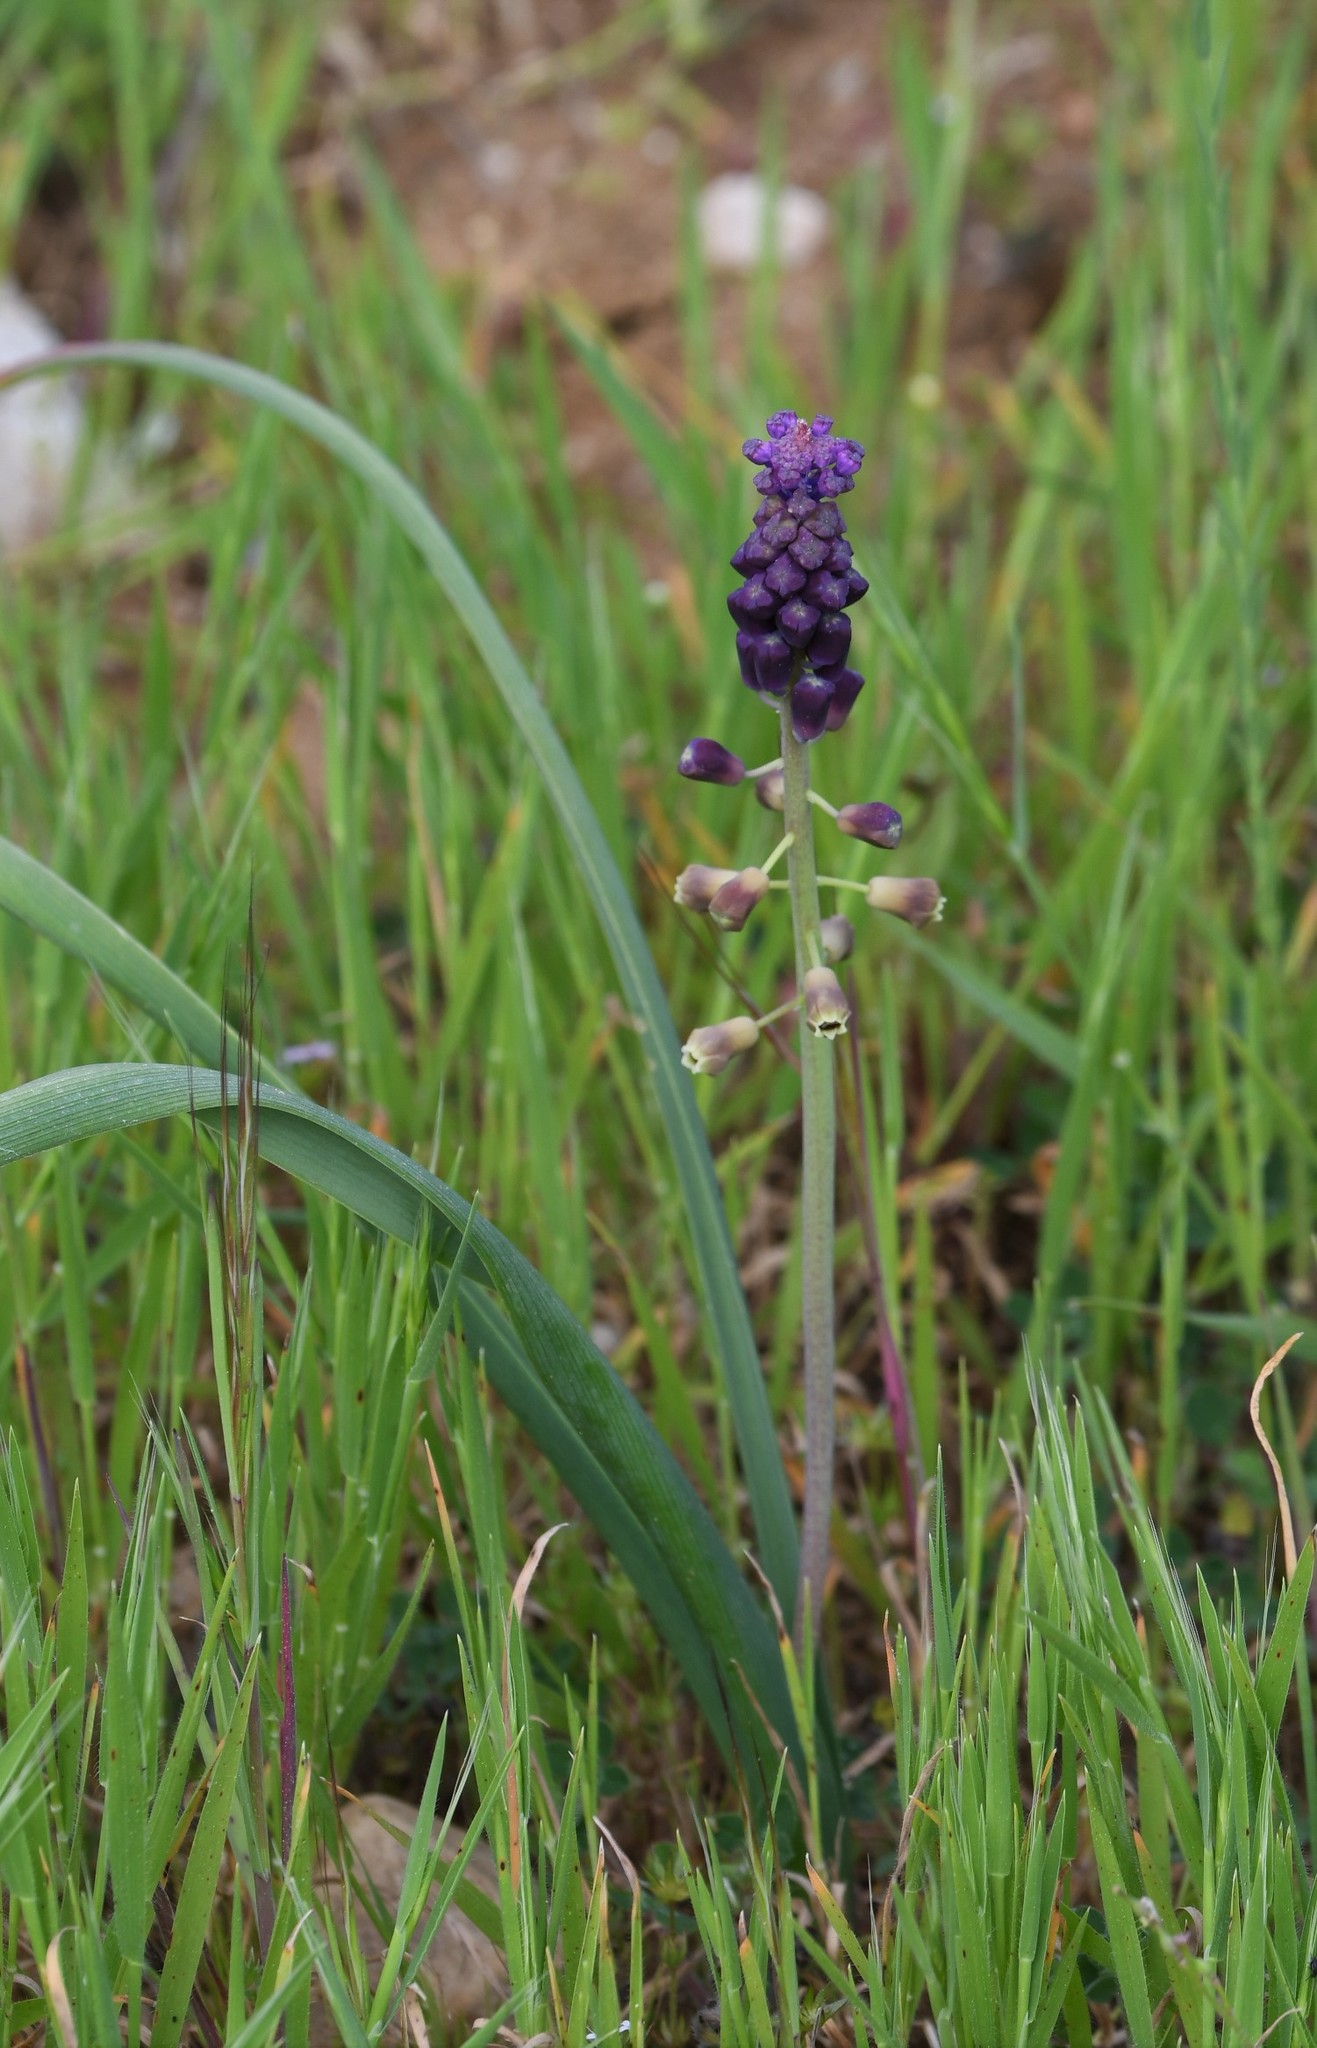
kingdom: Plantae
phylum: Tracheophyta
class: Liliopsida
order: Asparagales
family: Asparagaceae
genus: Muscari
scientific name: Muscari comosum
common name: Tassel hyacinth
